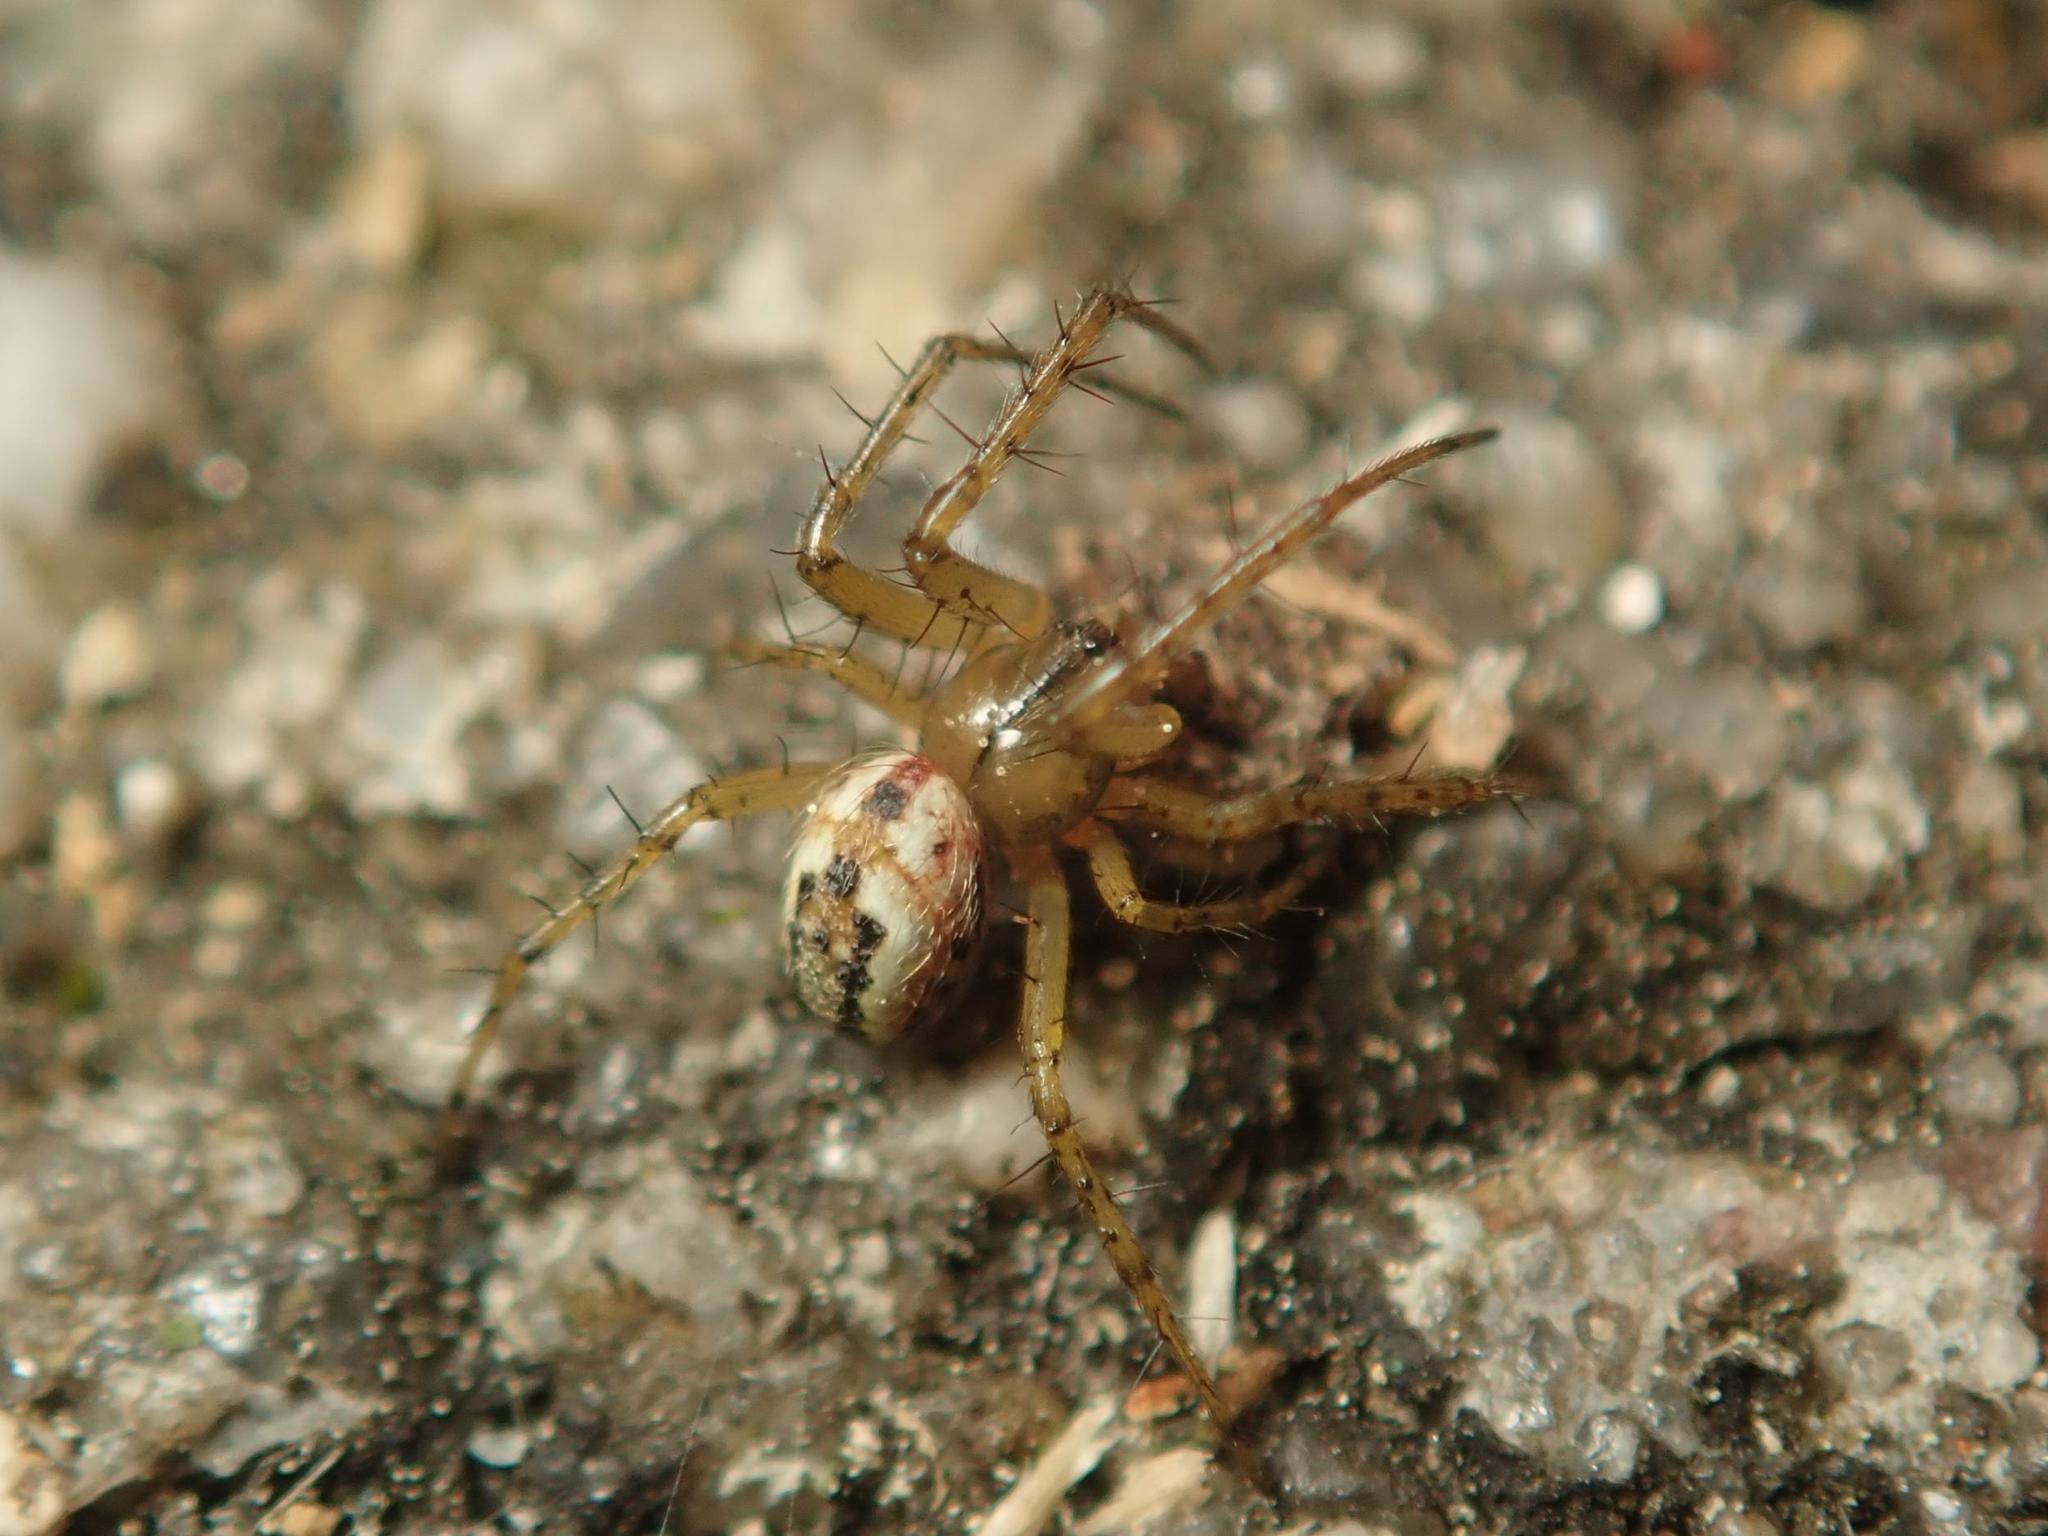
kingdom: Animalia
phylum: Arthropoda
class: Arachnida
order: Araneae
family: Araneidae
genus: Mangora
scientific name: Mangora acalypha
